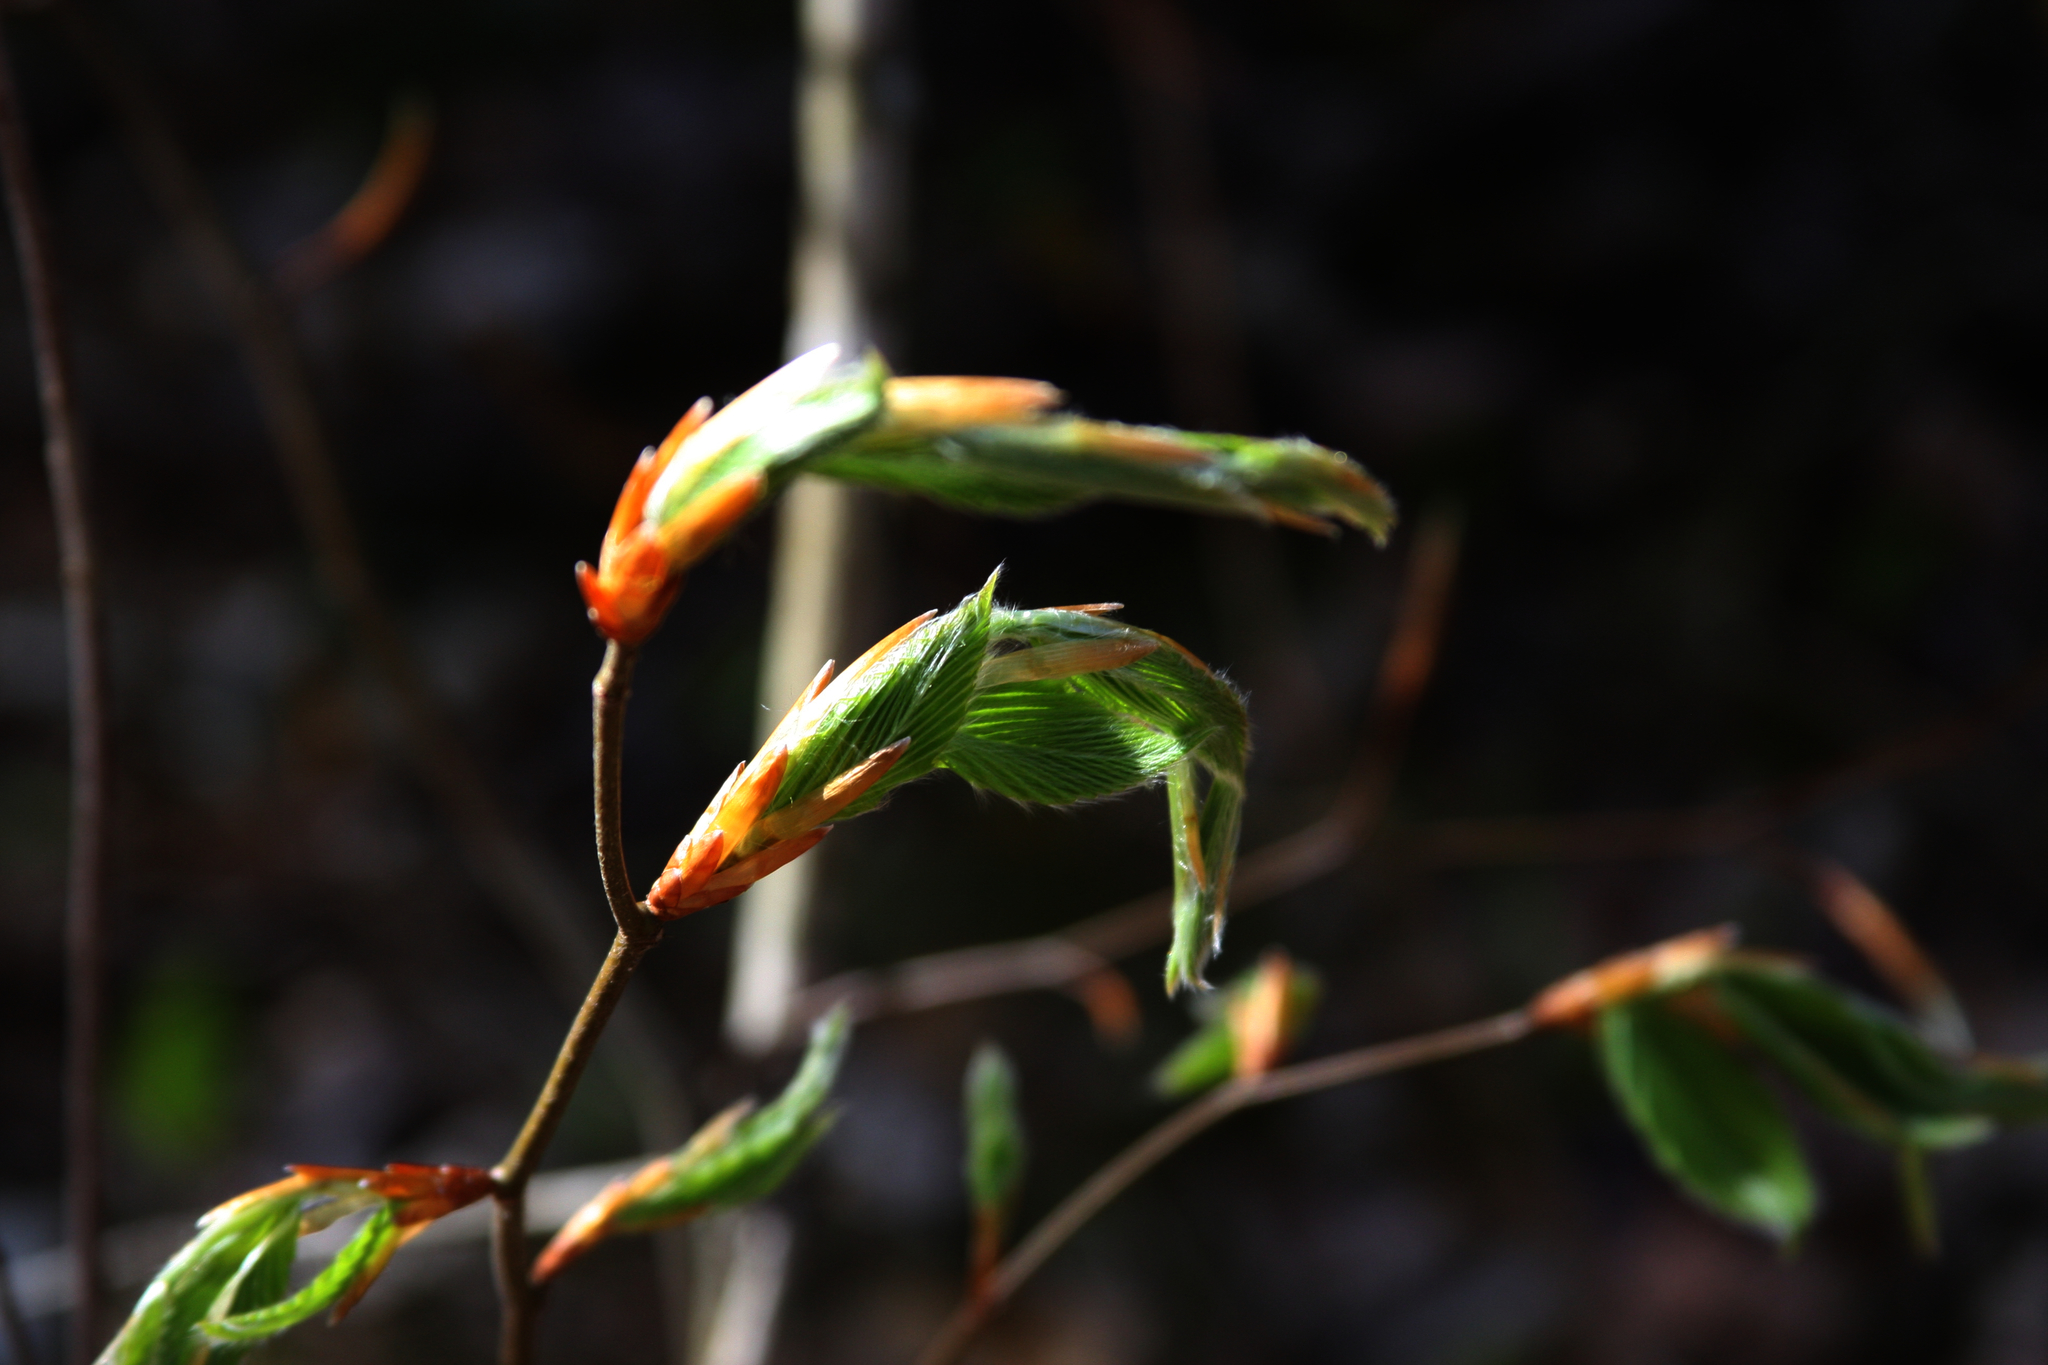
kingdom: Plantae
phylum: Tracheophyta
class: Magnoliopsida
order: Fagales
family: Fagaceae
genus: Fagus
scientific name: Fagus grandifolia
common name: American beech
